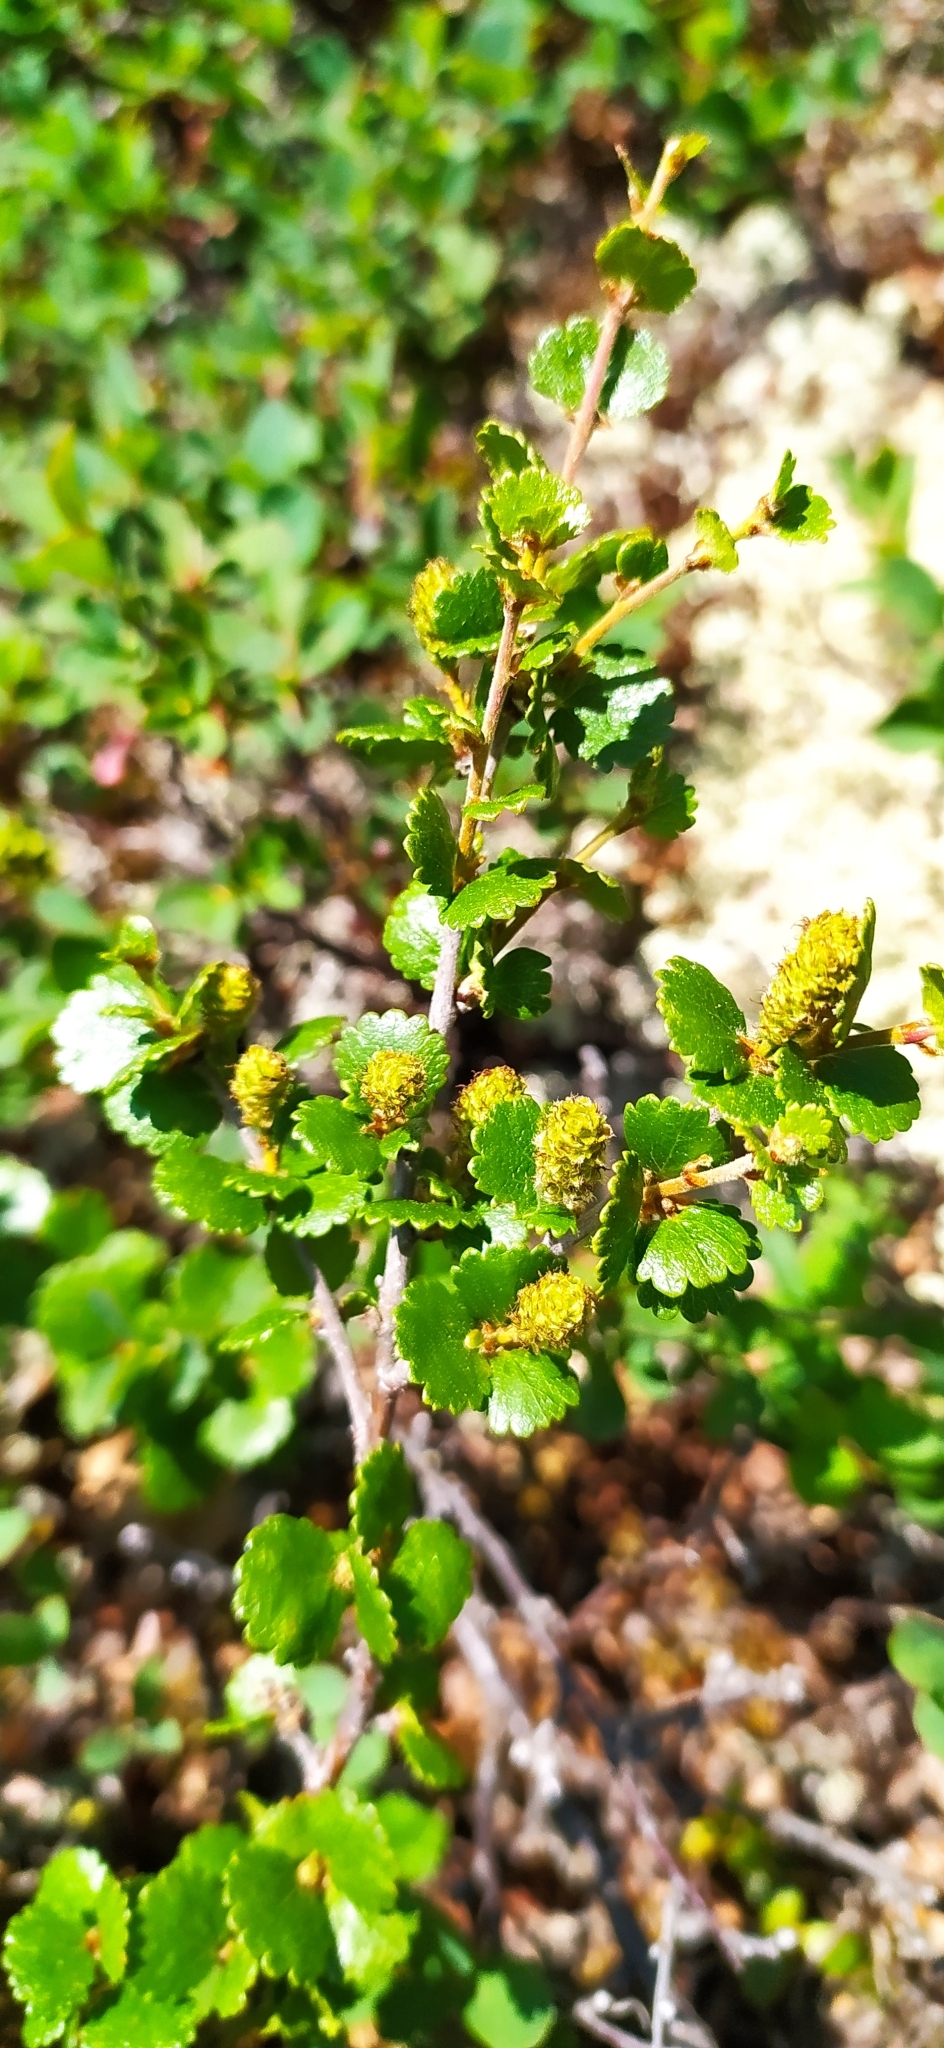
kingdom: Plantae
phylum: Tracheophyta
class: Magnoliopsida
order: Fagales
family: Betulaceae
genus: Betula
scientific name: Betula nana
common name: Arctic dwarf birch
